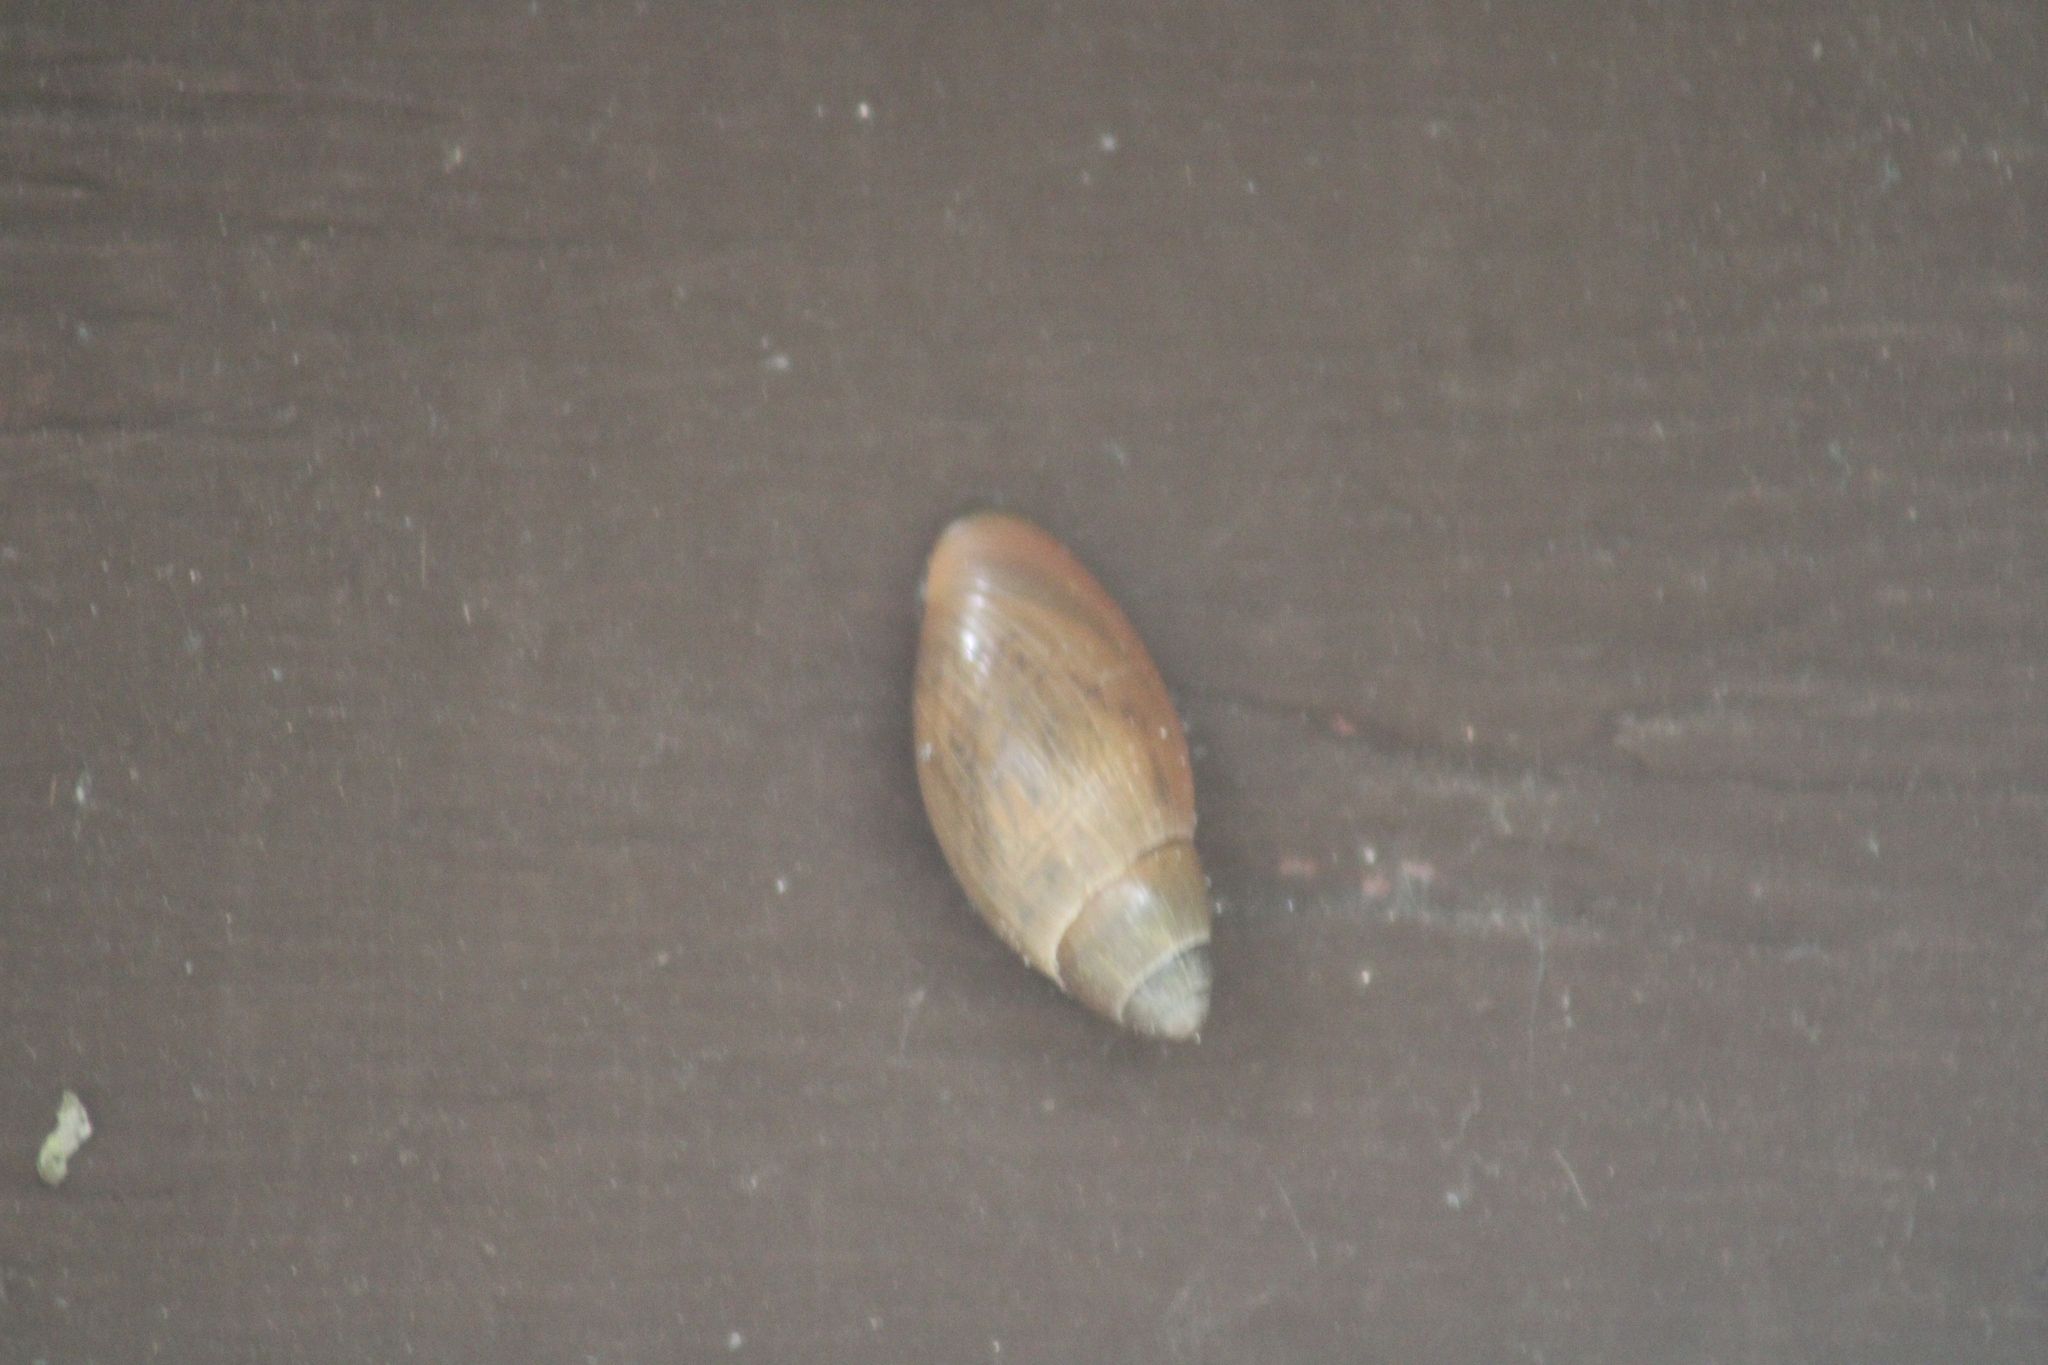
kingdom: Animalia
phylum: Mollusca
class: Gastropoda
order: Stylommatophora
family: Spiraxidae
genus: Euglandina
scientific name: Euglandina rosea
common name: Rosy wolfsnail
